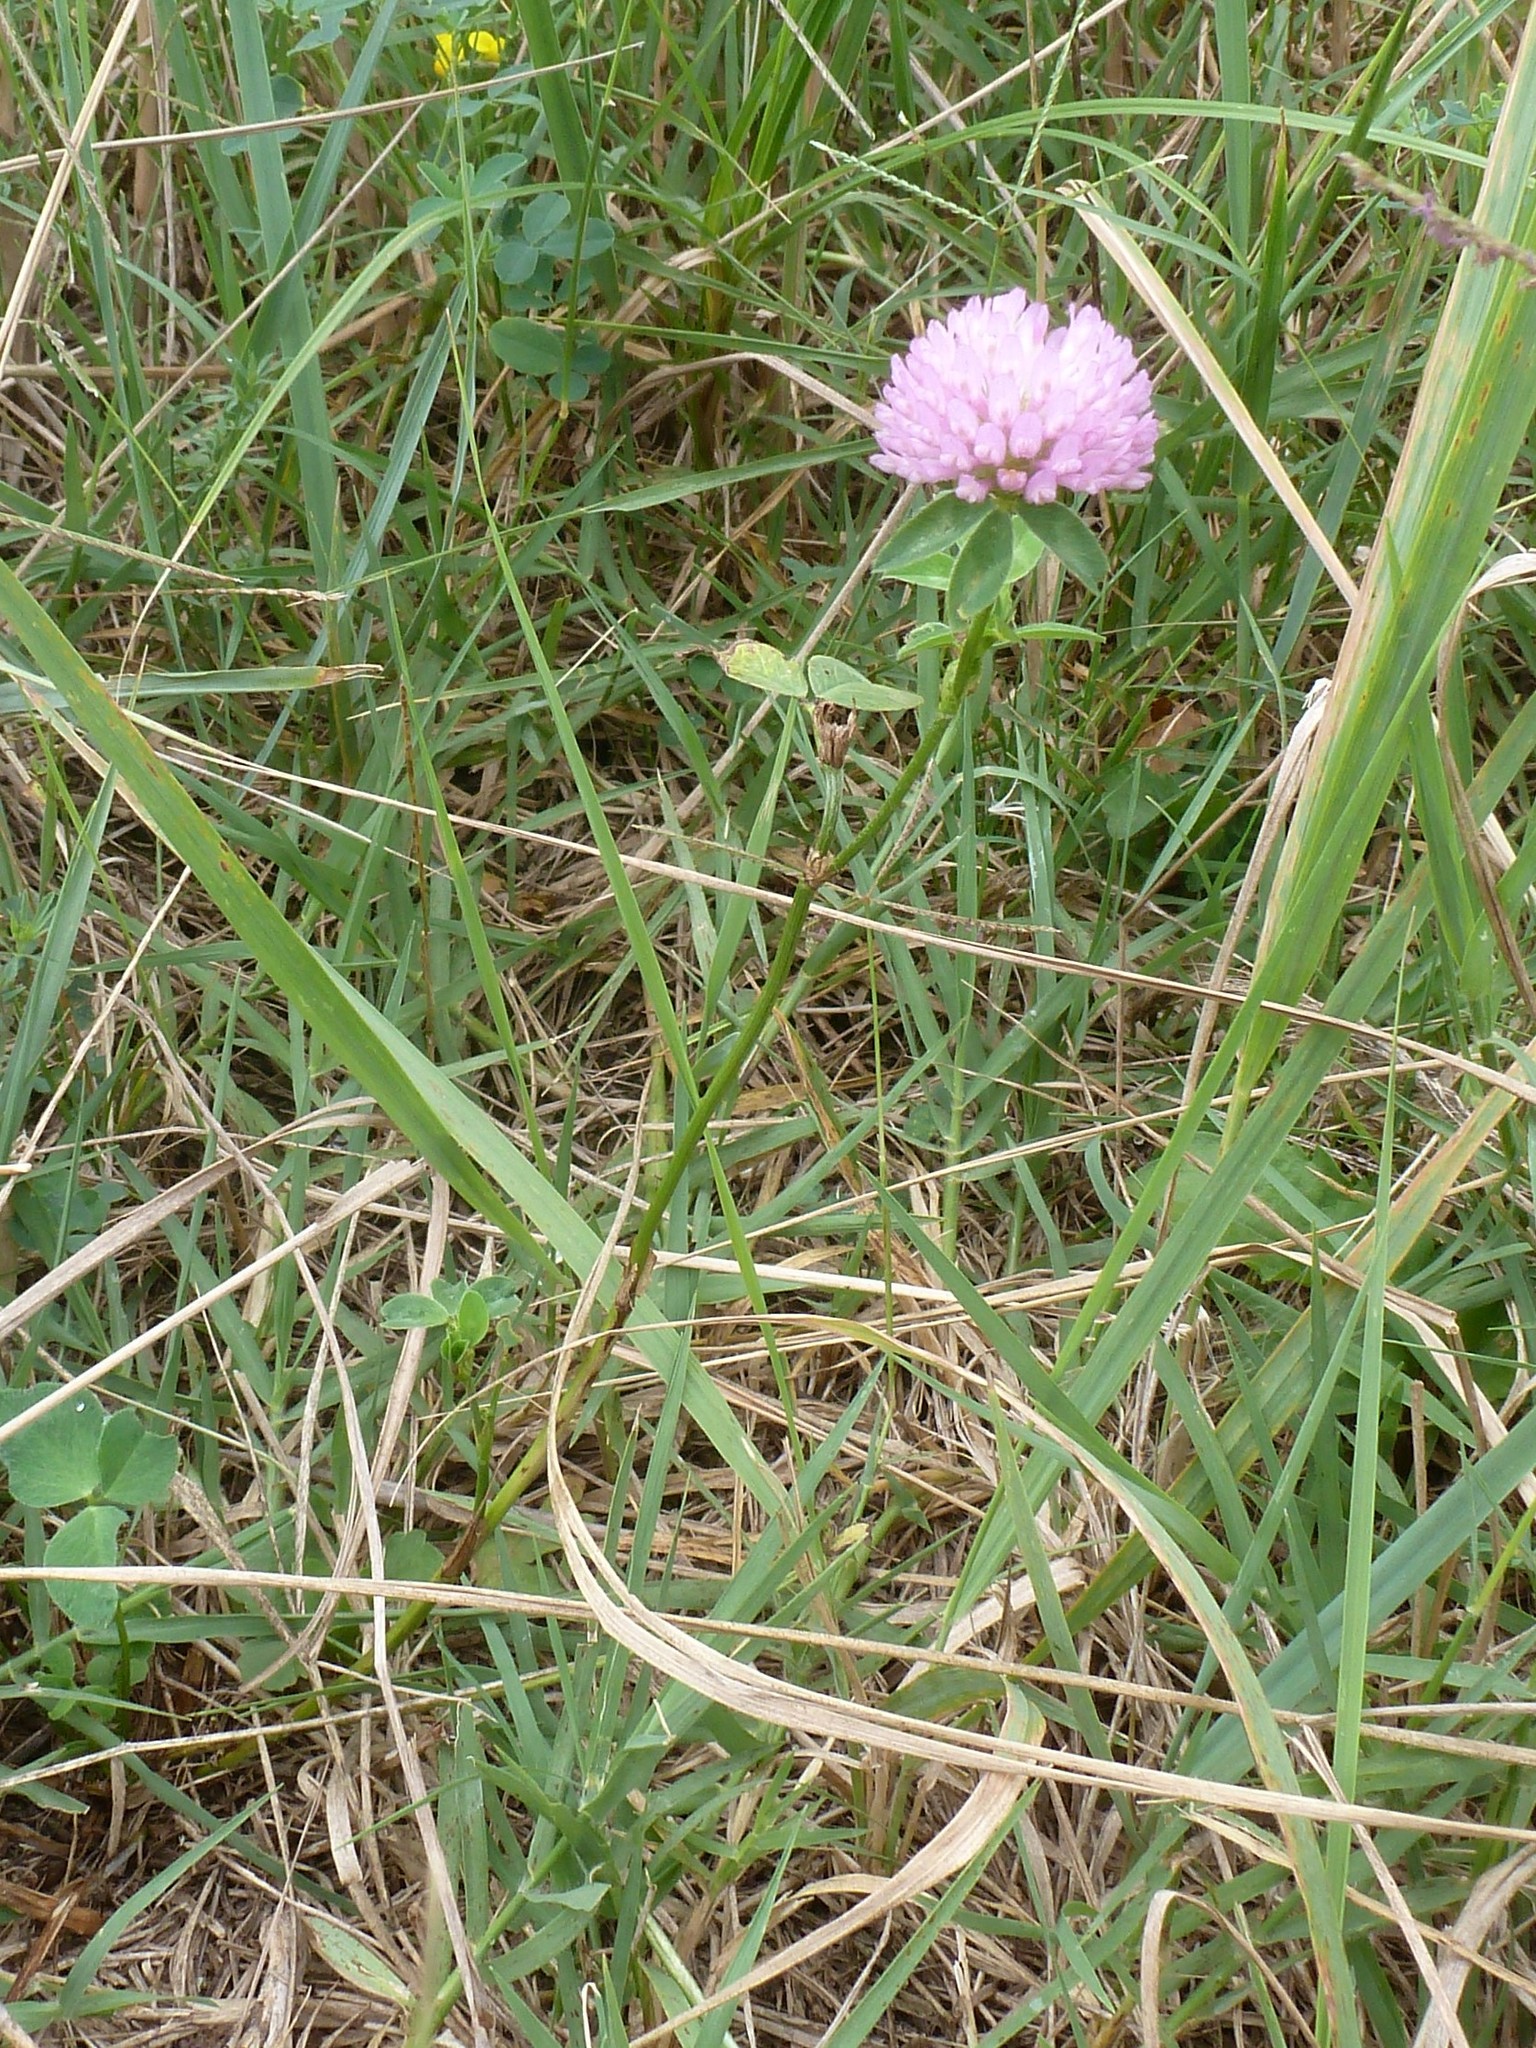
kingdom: Plantae
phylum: Tracheophyta
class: Magnoliopsida
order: Fabales
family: Fabaceae
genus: Trifolium
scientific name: Trifolium pratense
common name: Red clover
